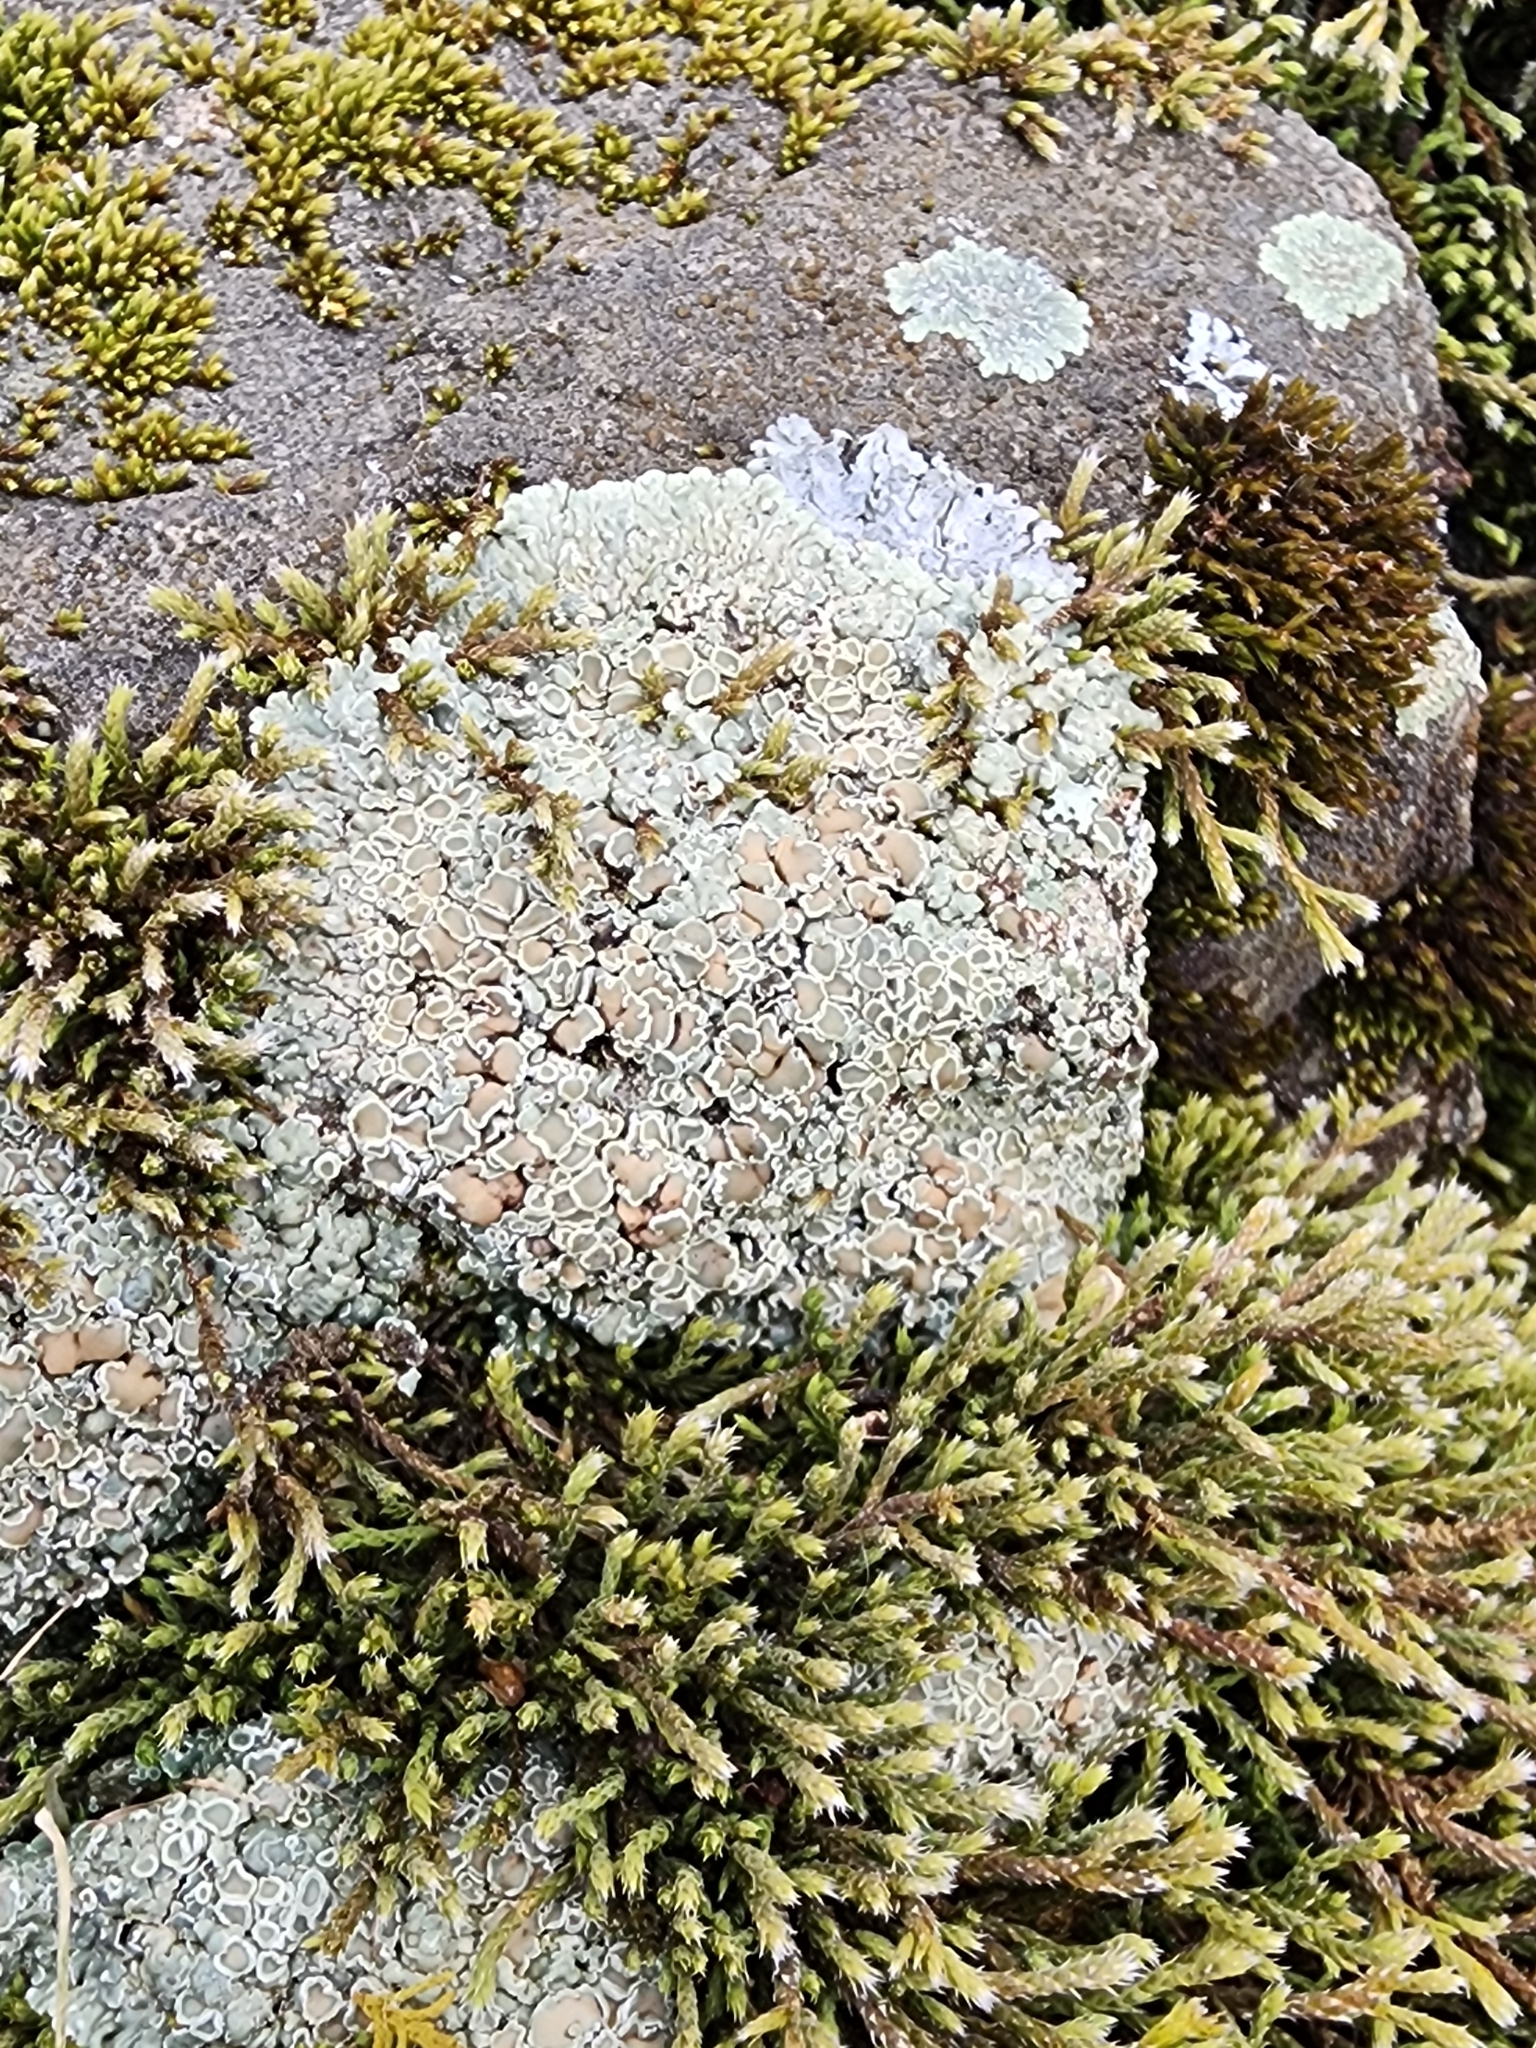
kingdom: Fungi
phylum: Ascomycota
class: Lecanoromycetes
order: Lecanorales
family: Lecanoraceae
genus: Protoparmeliopsis
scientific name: Protoparmeliopsis muralis
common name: Stonewall rim lichen
